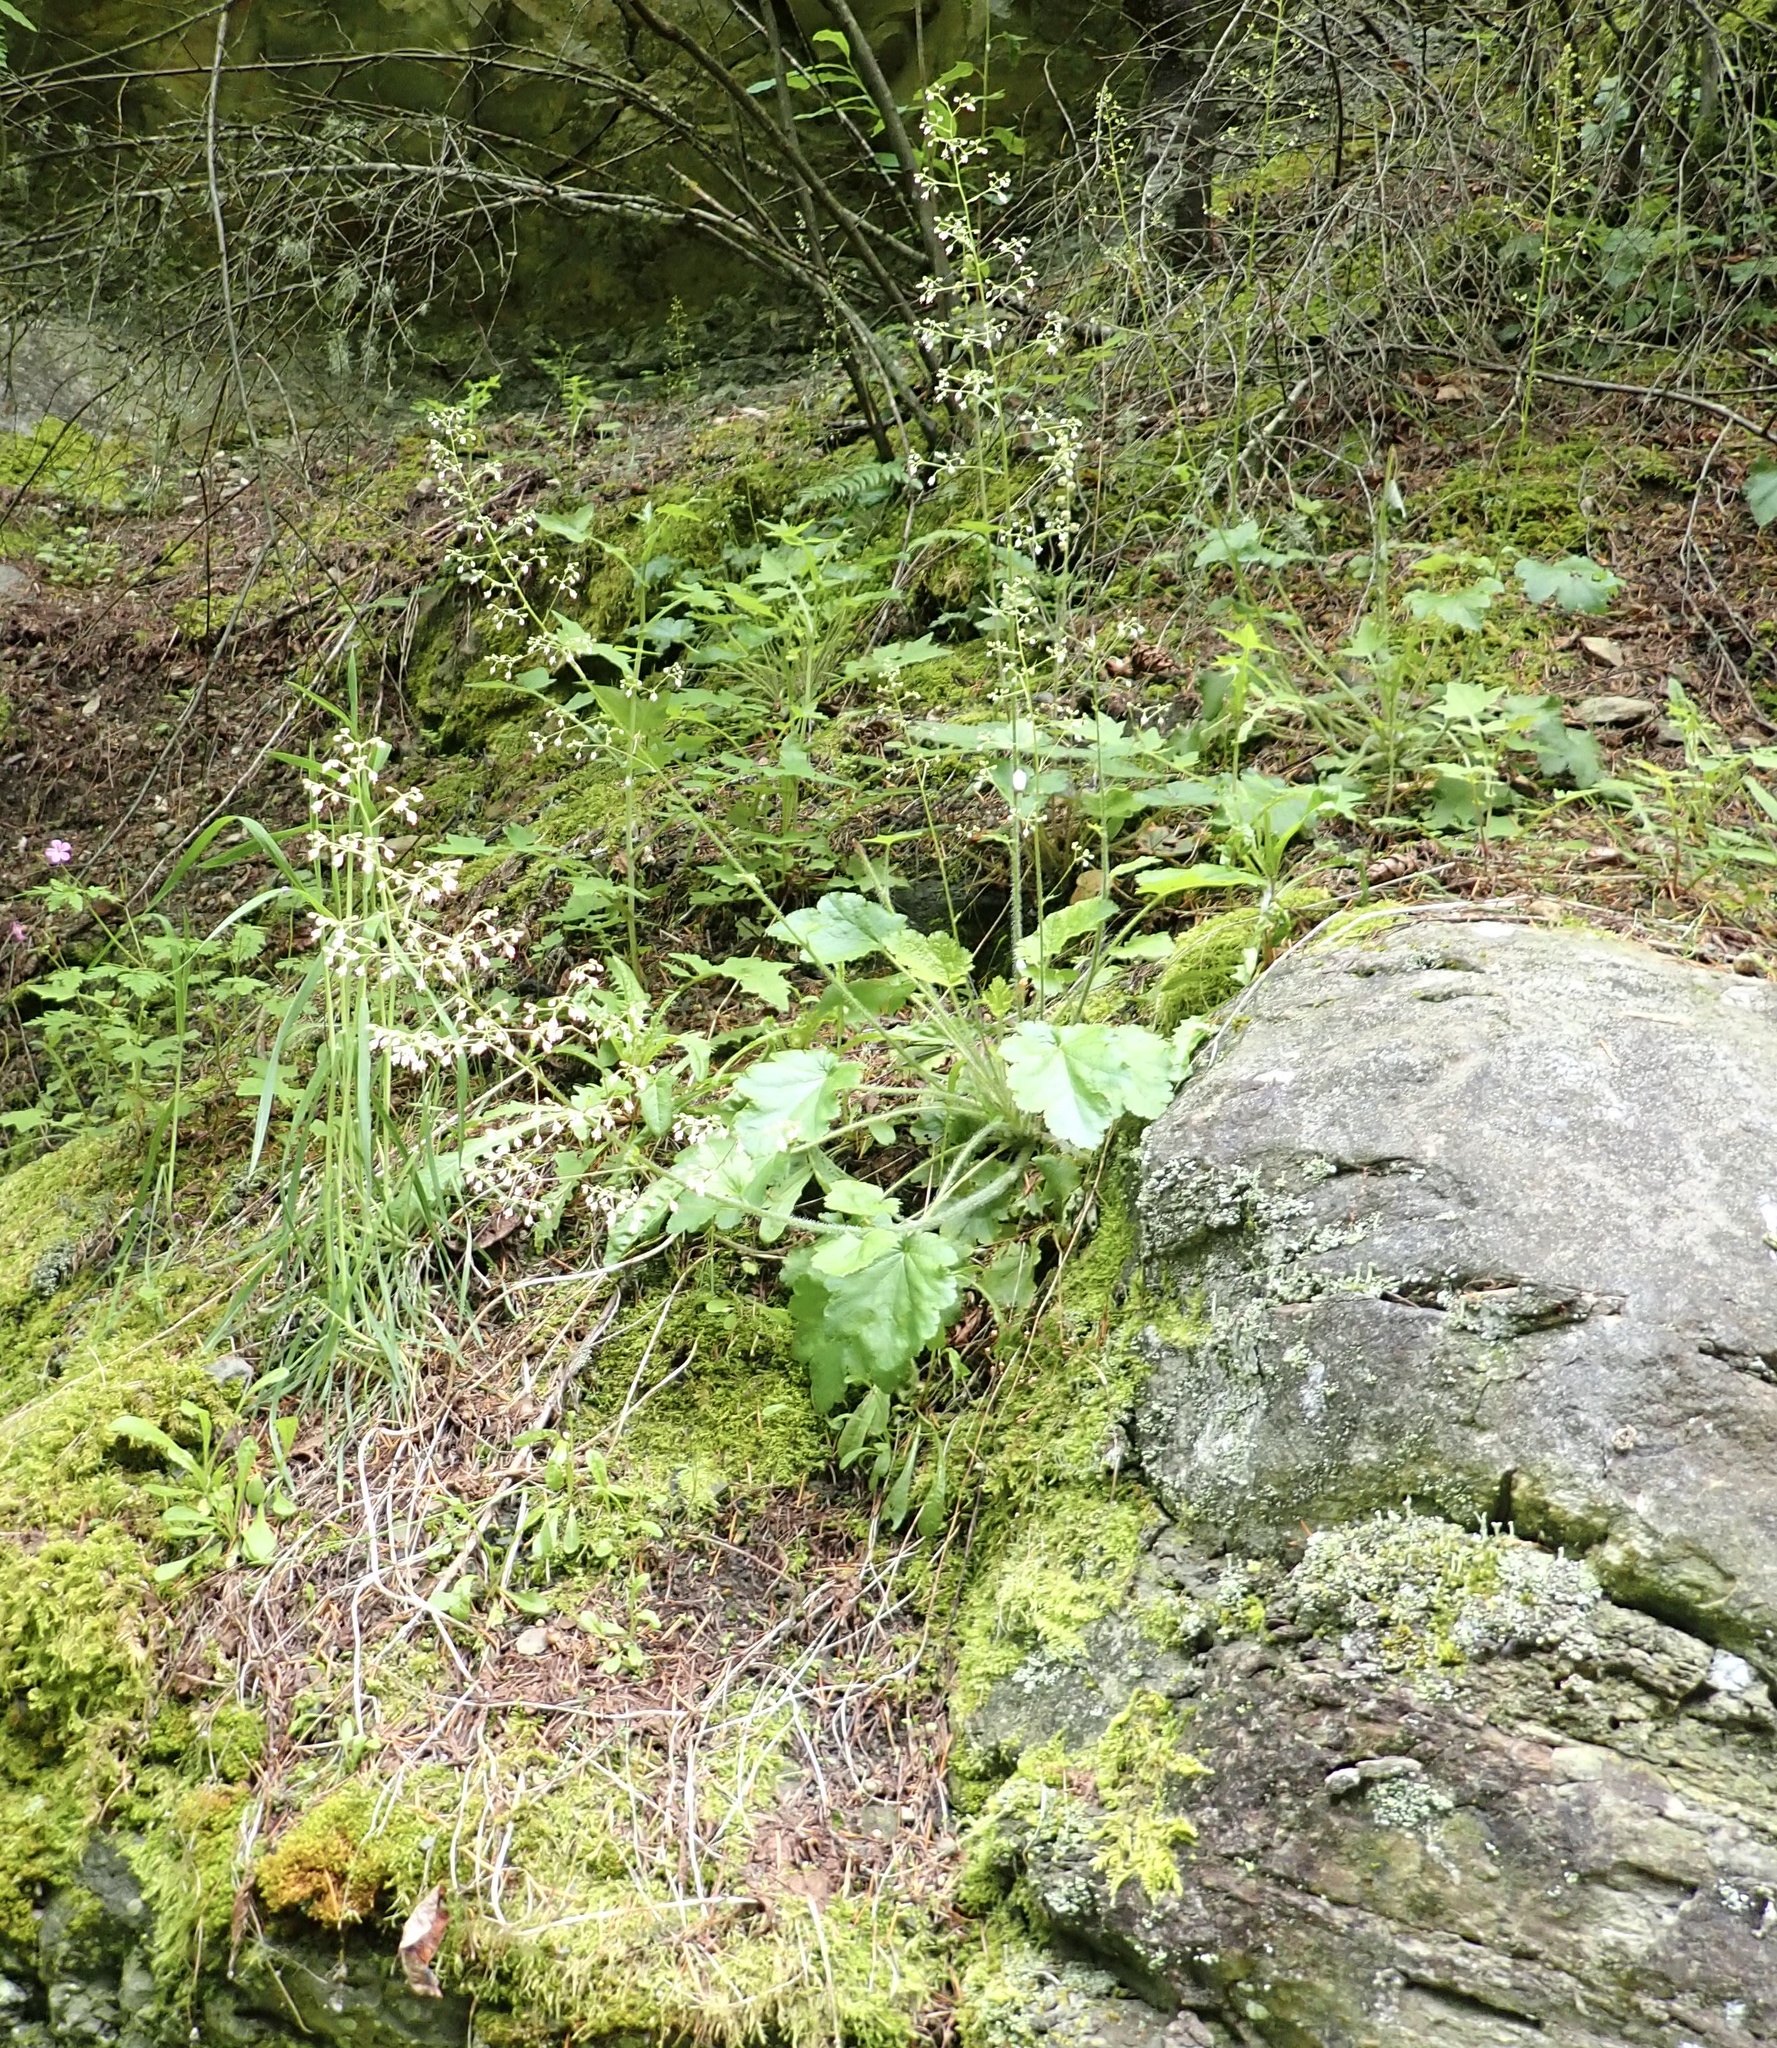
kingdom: Plantae
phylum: Tracheophyta
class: Magnoliopsida
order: Saxifragales
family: Saxifragaceae
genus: Heuchera
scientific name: Heuchera micrantha
